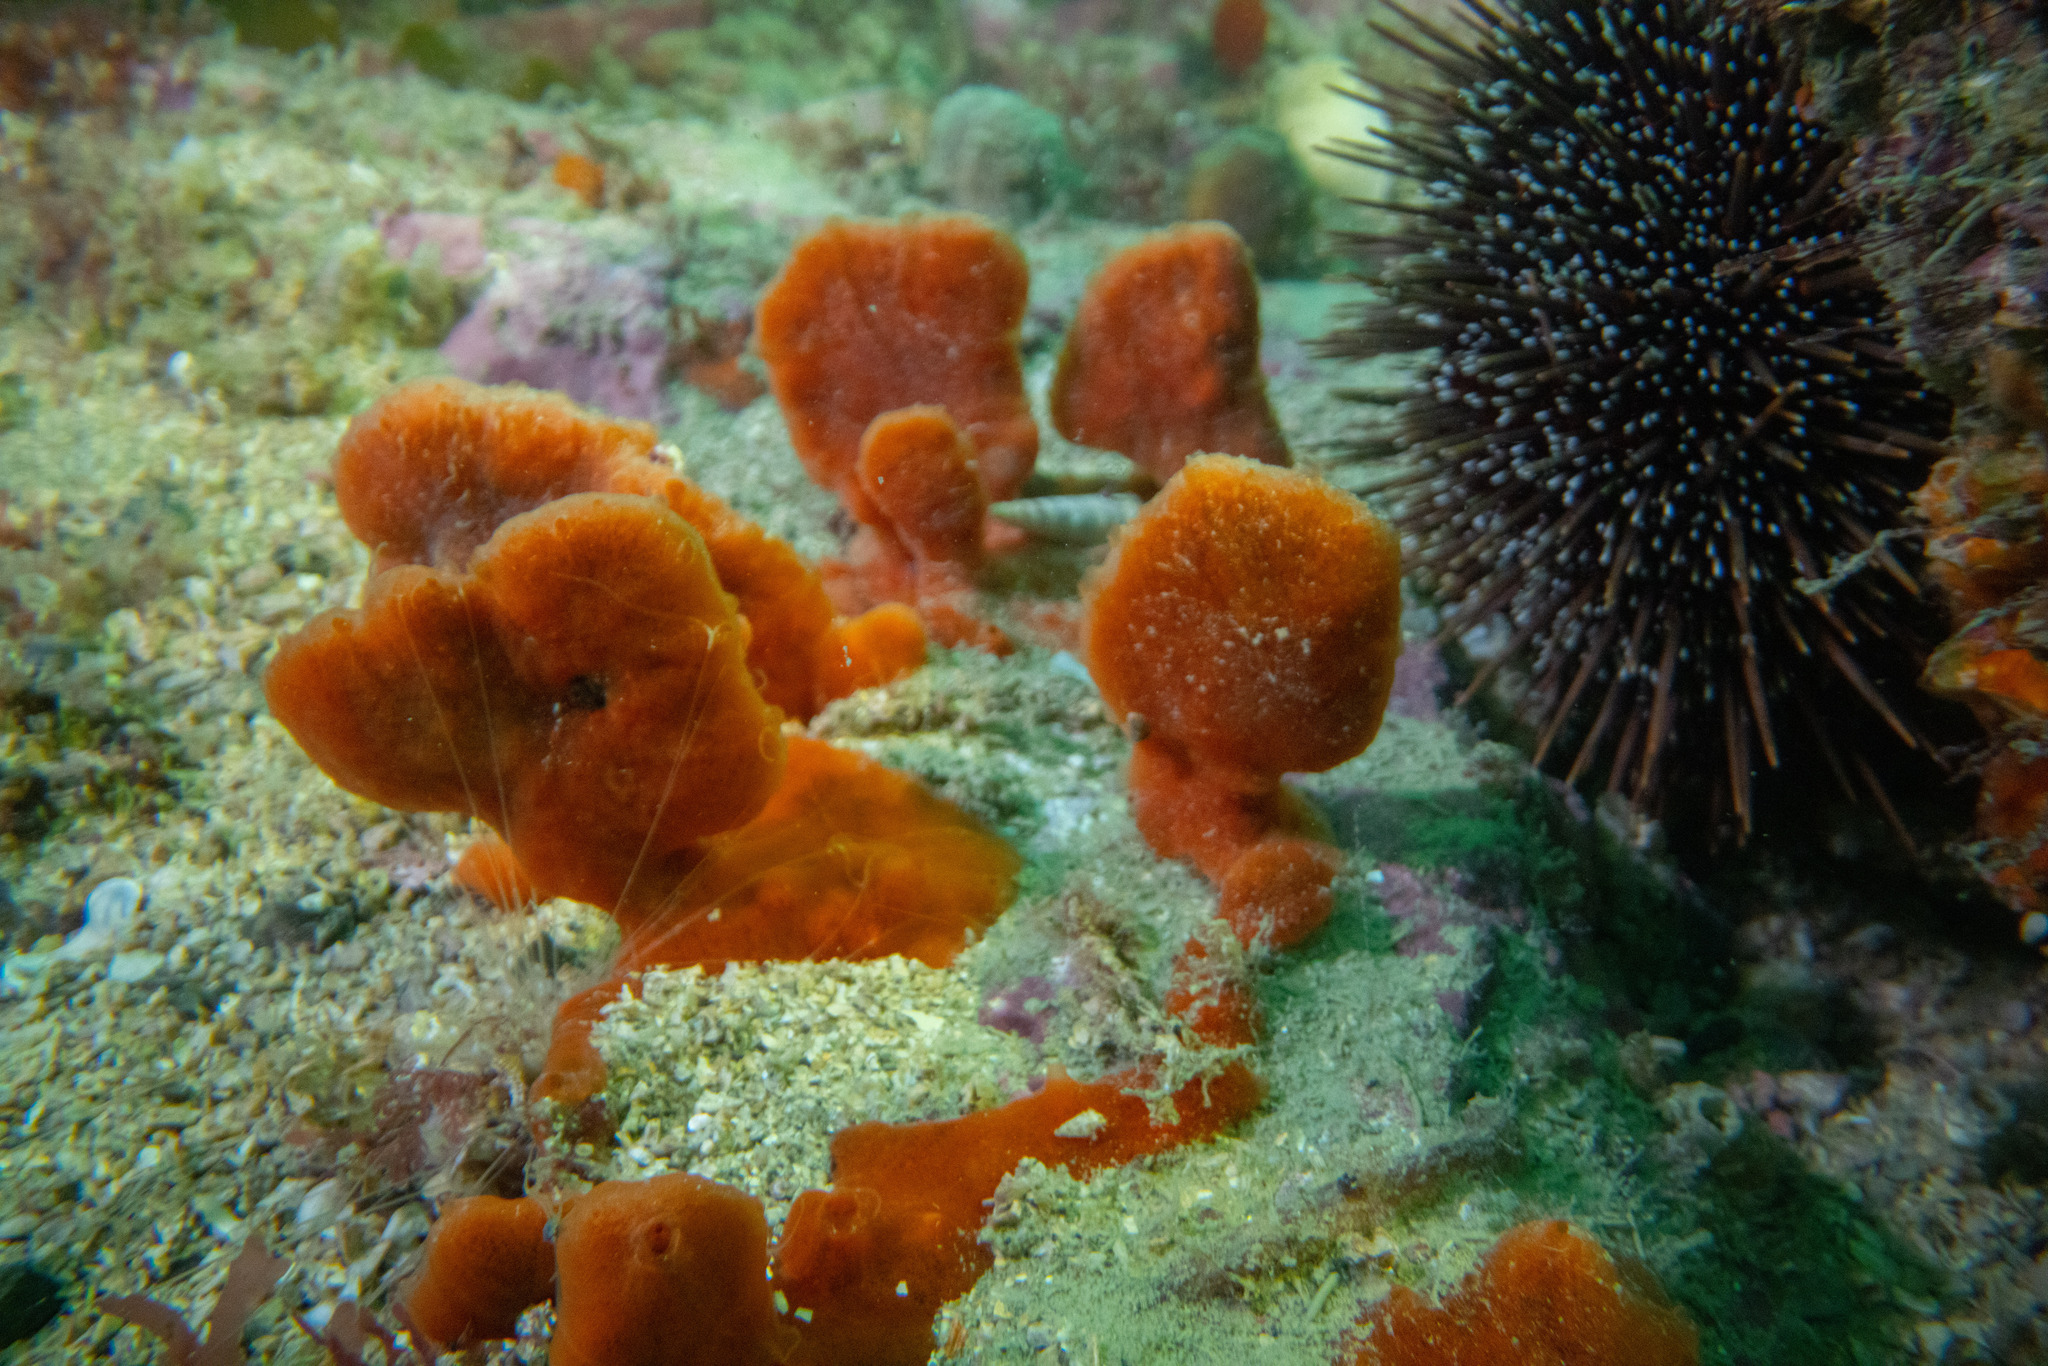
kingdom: Animalia
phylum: Porifera
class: Demospongiae
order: Poecilosclerida
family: Crellidae
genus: Crella
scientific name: Crella incrustans
